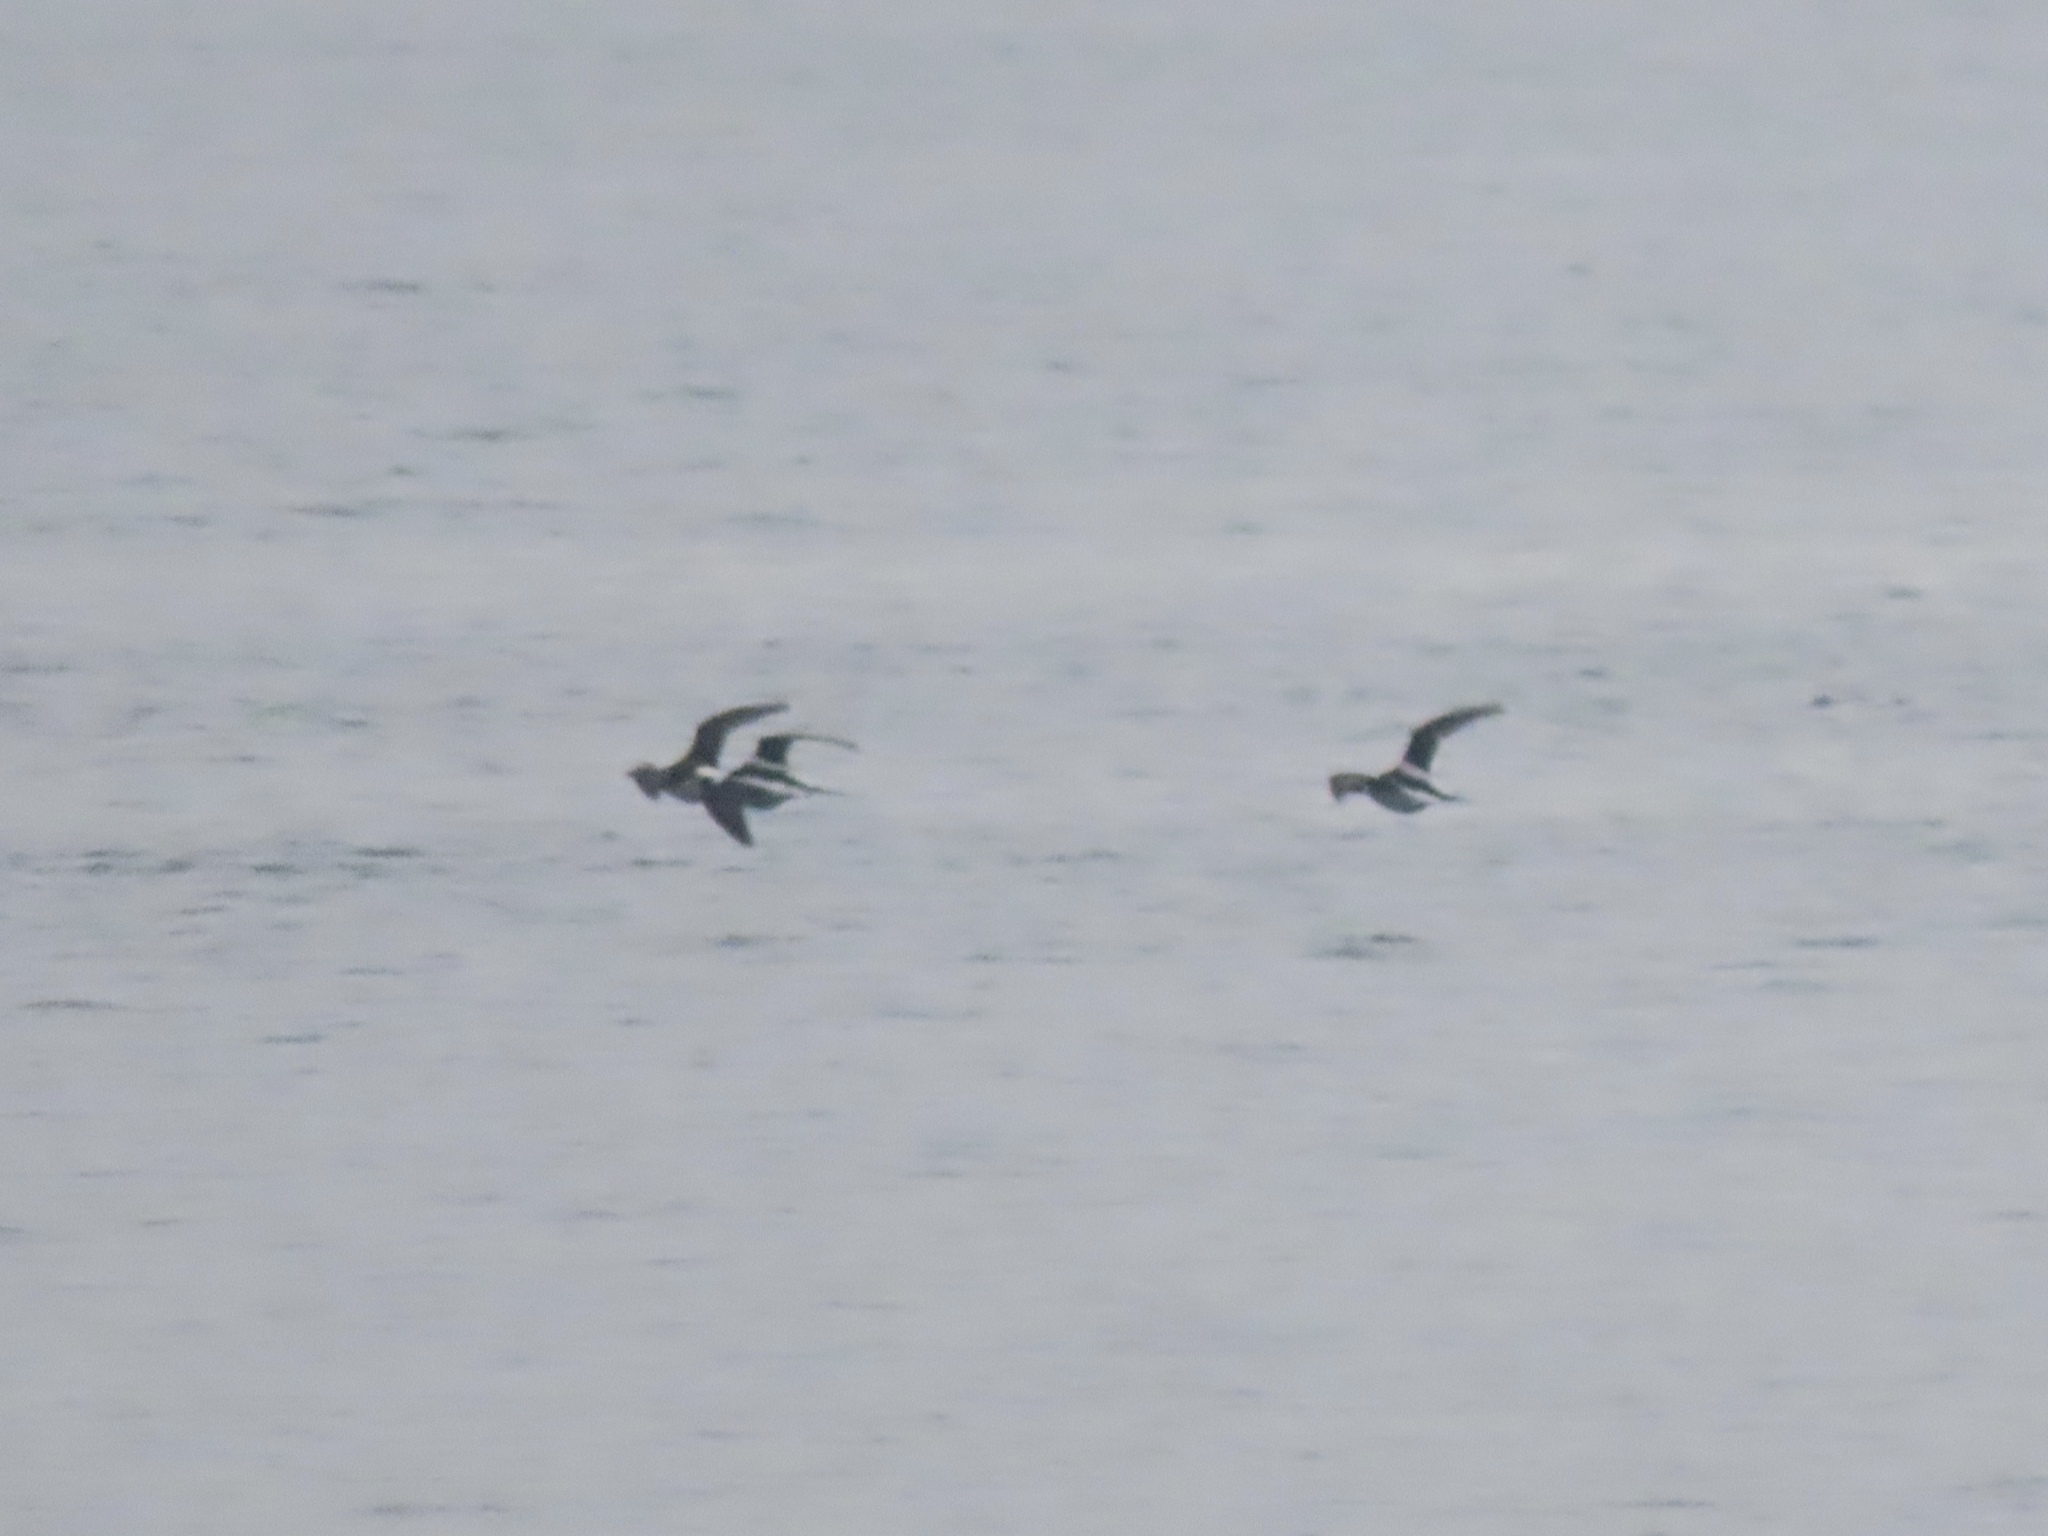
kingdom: Animalia
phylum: Chordata
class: Aves
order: Anseriformes
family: Anatidae
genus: Clangula
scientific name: Clangula hyemalis
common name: Long-tailed duck
